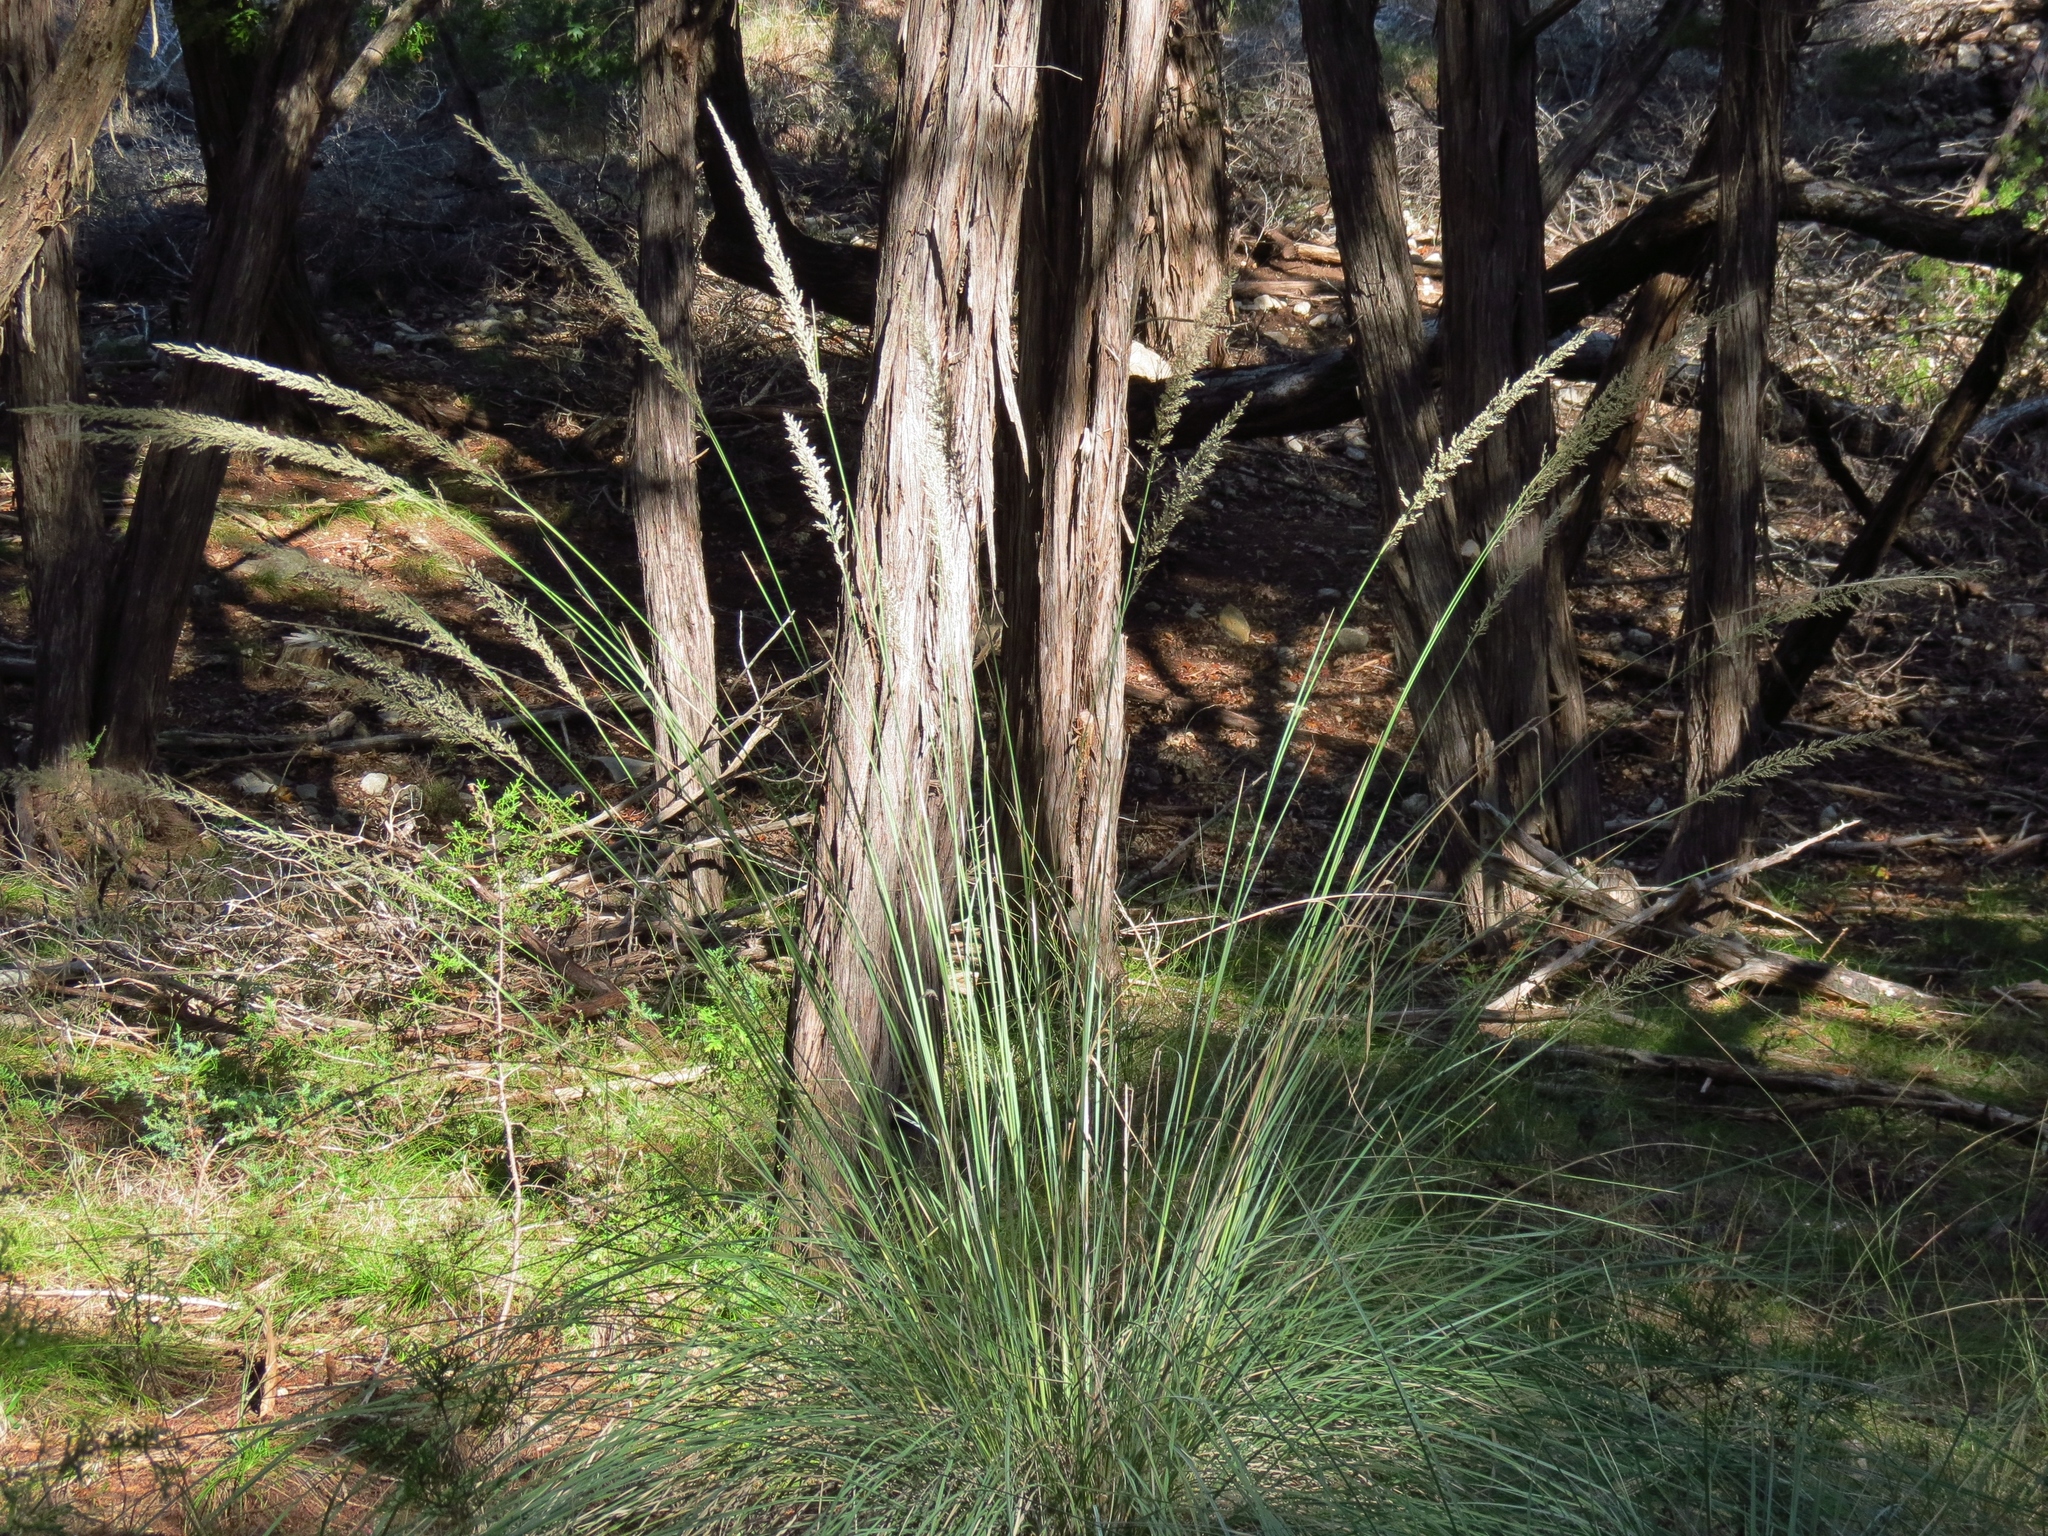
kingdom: Plantae
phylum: Tracheophyta
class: Liliopsida
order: Poales
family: Poaceae
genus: Muhlenbergia
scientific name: Muhlenbergia lindheimeri
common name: Lindheimer's muhly
